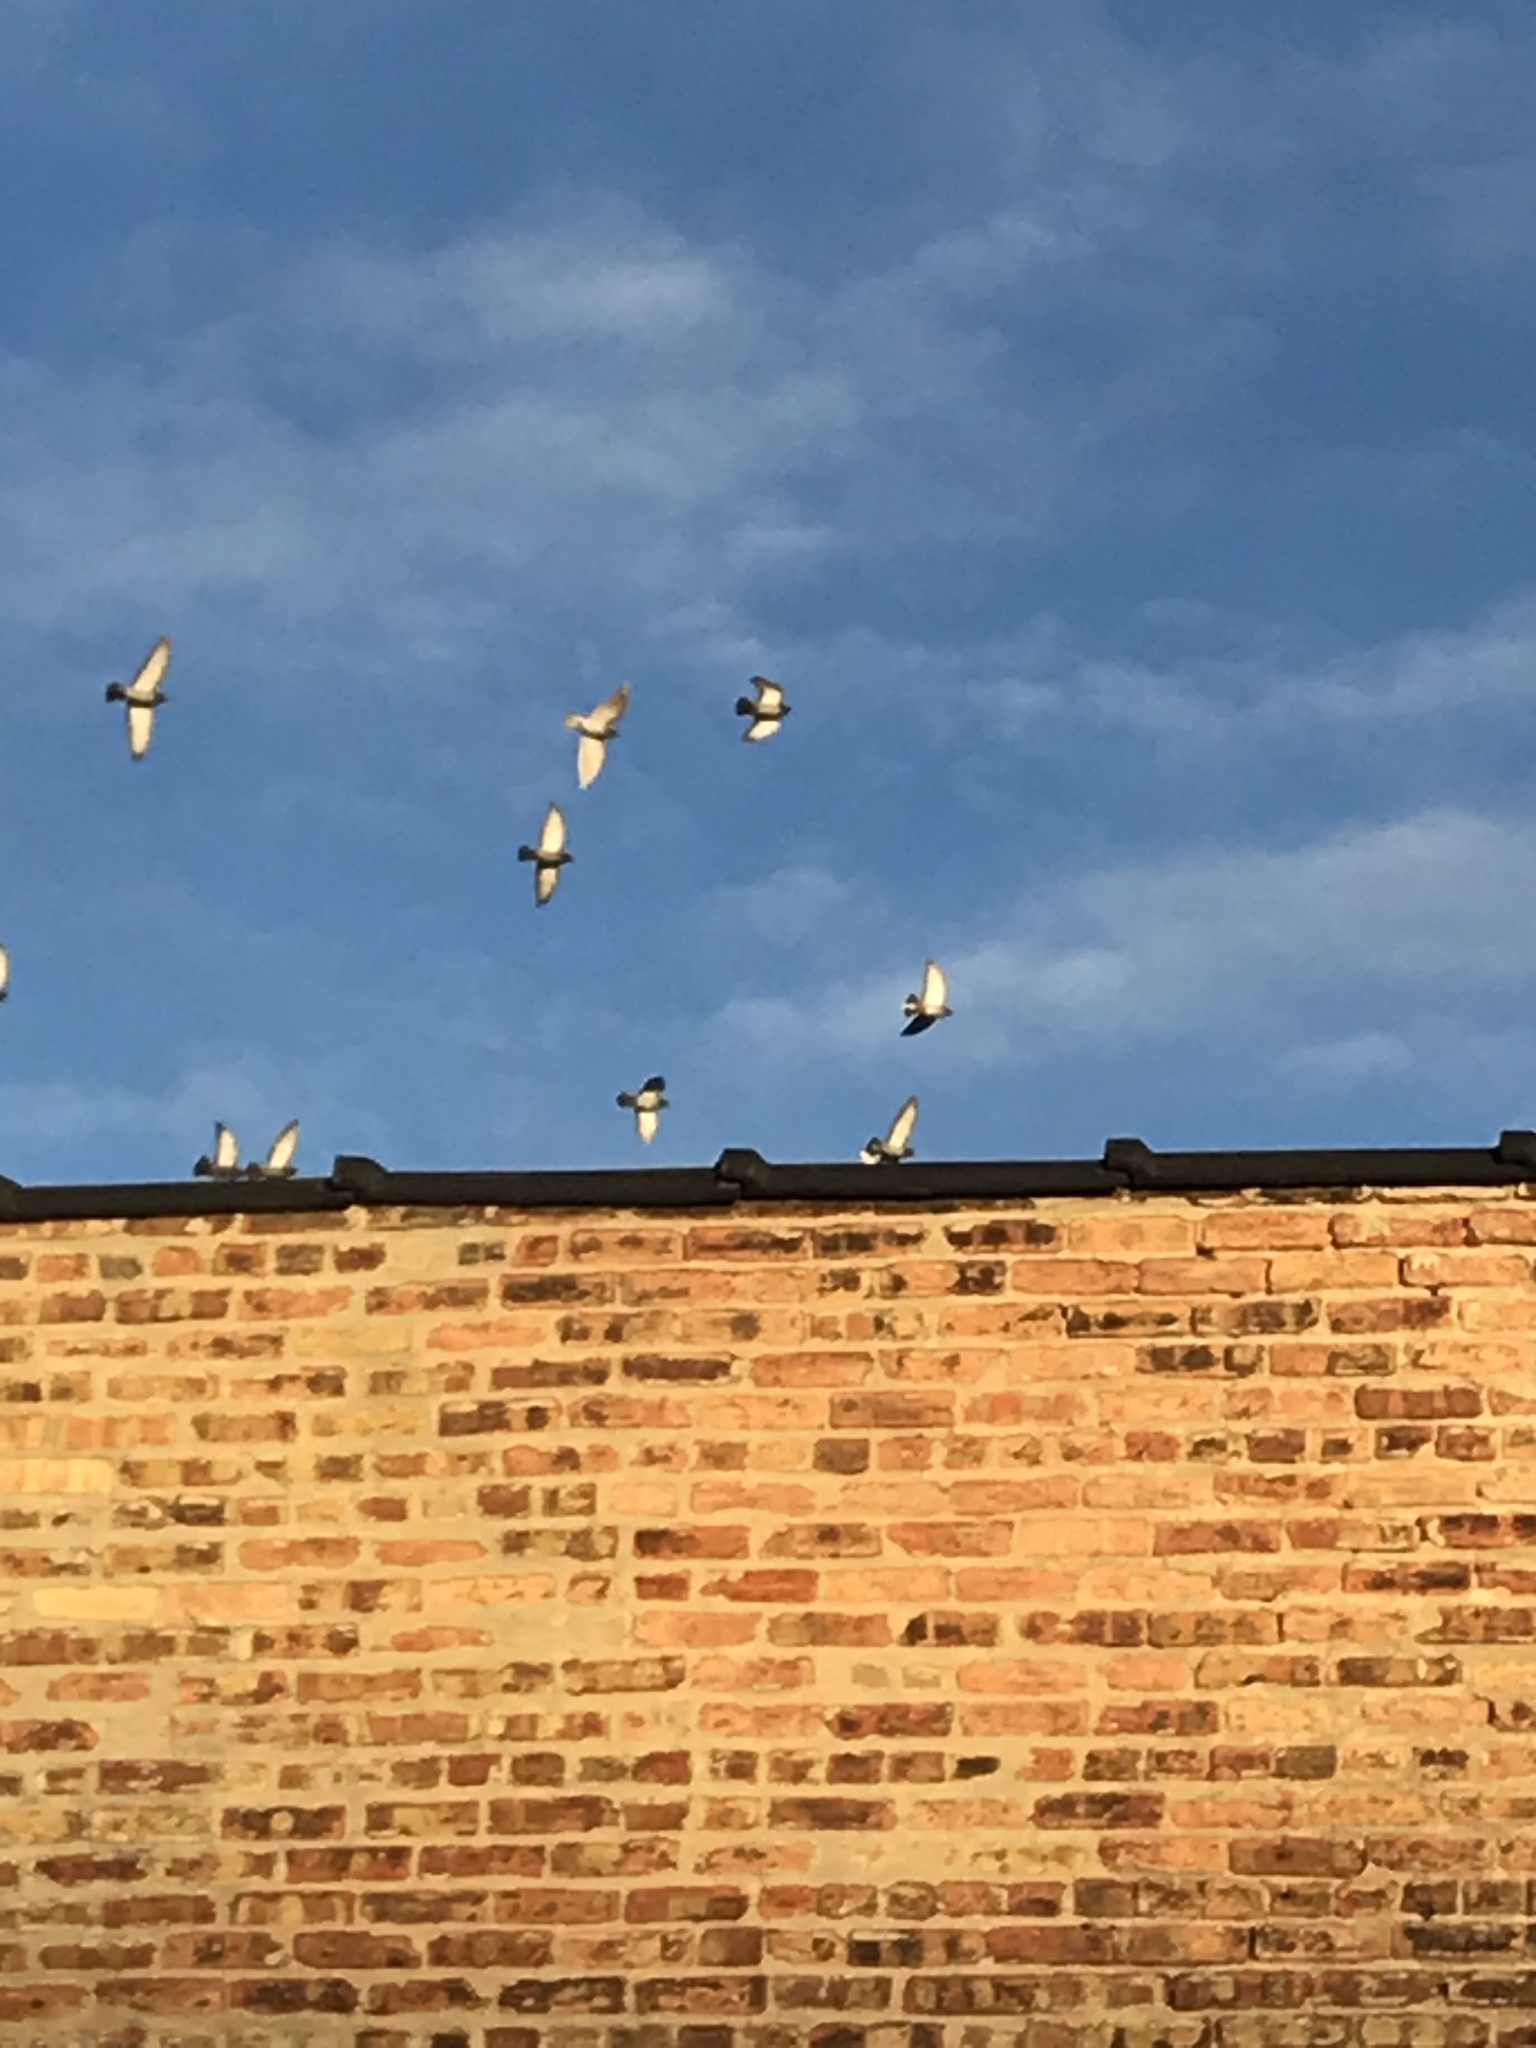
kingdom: Animalia
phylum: Chordata
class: Aves
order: Columbiformes
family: Columbidae
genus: Columba
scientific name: Columba livia
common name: Rock pigeon
